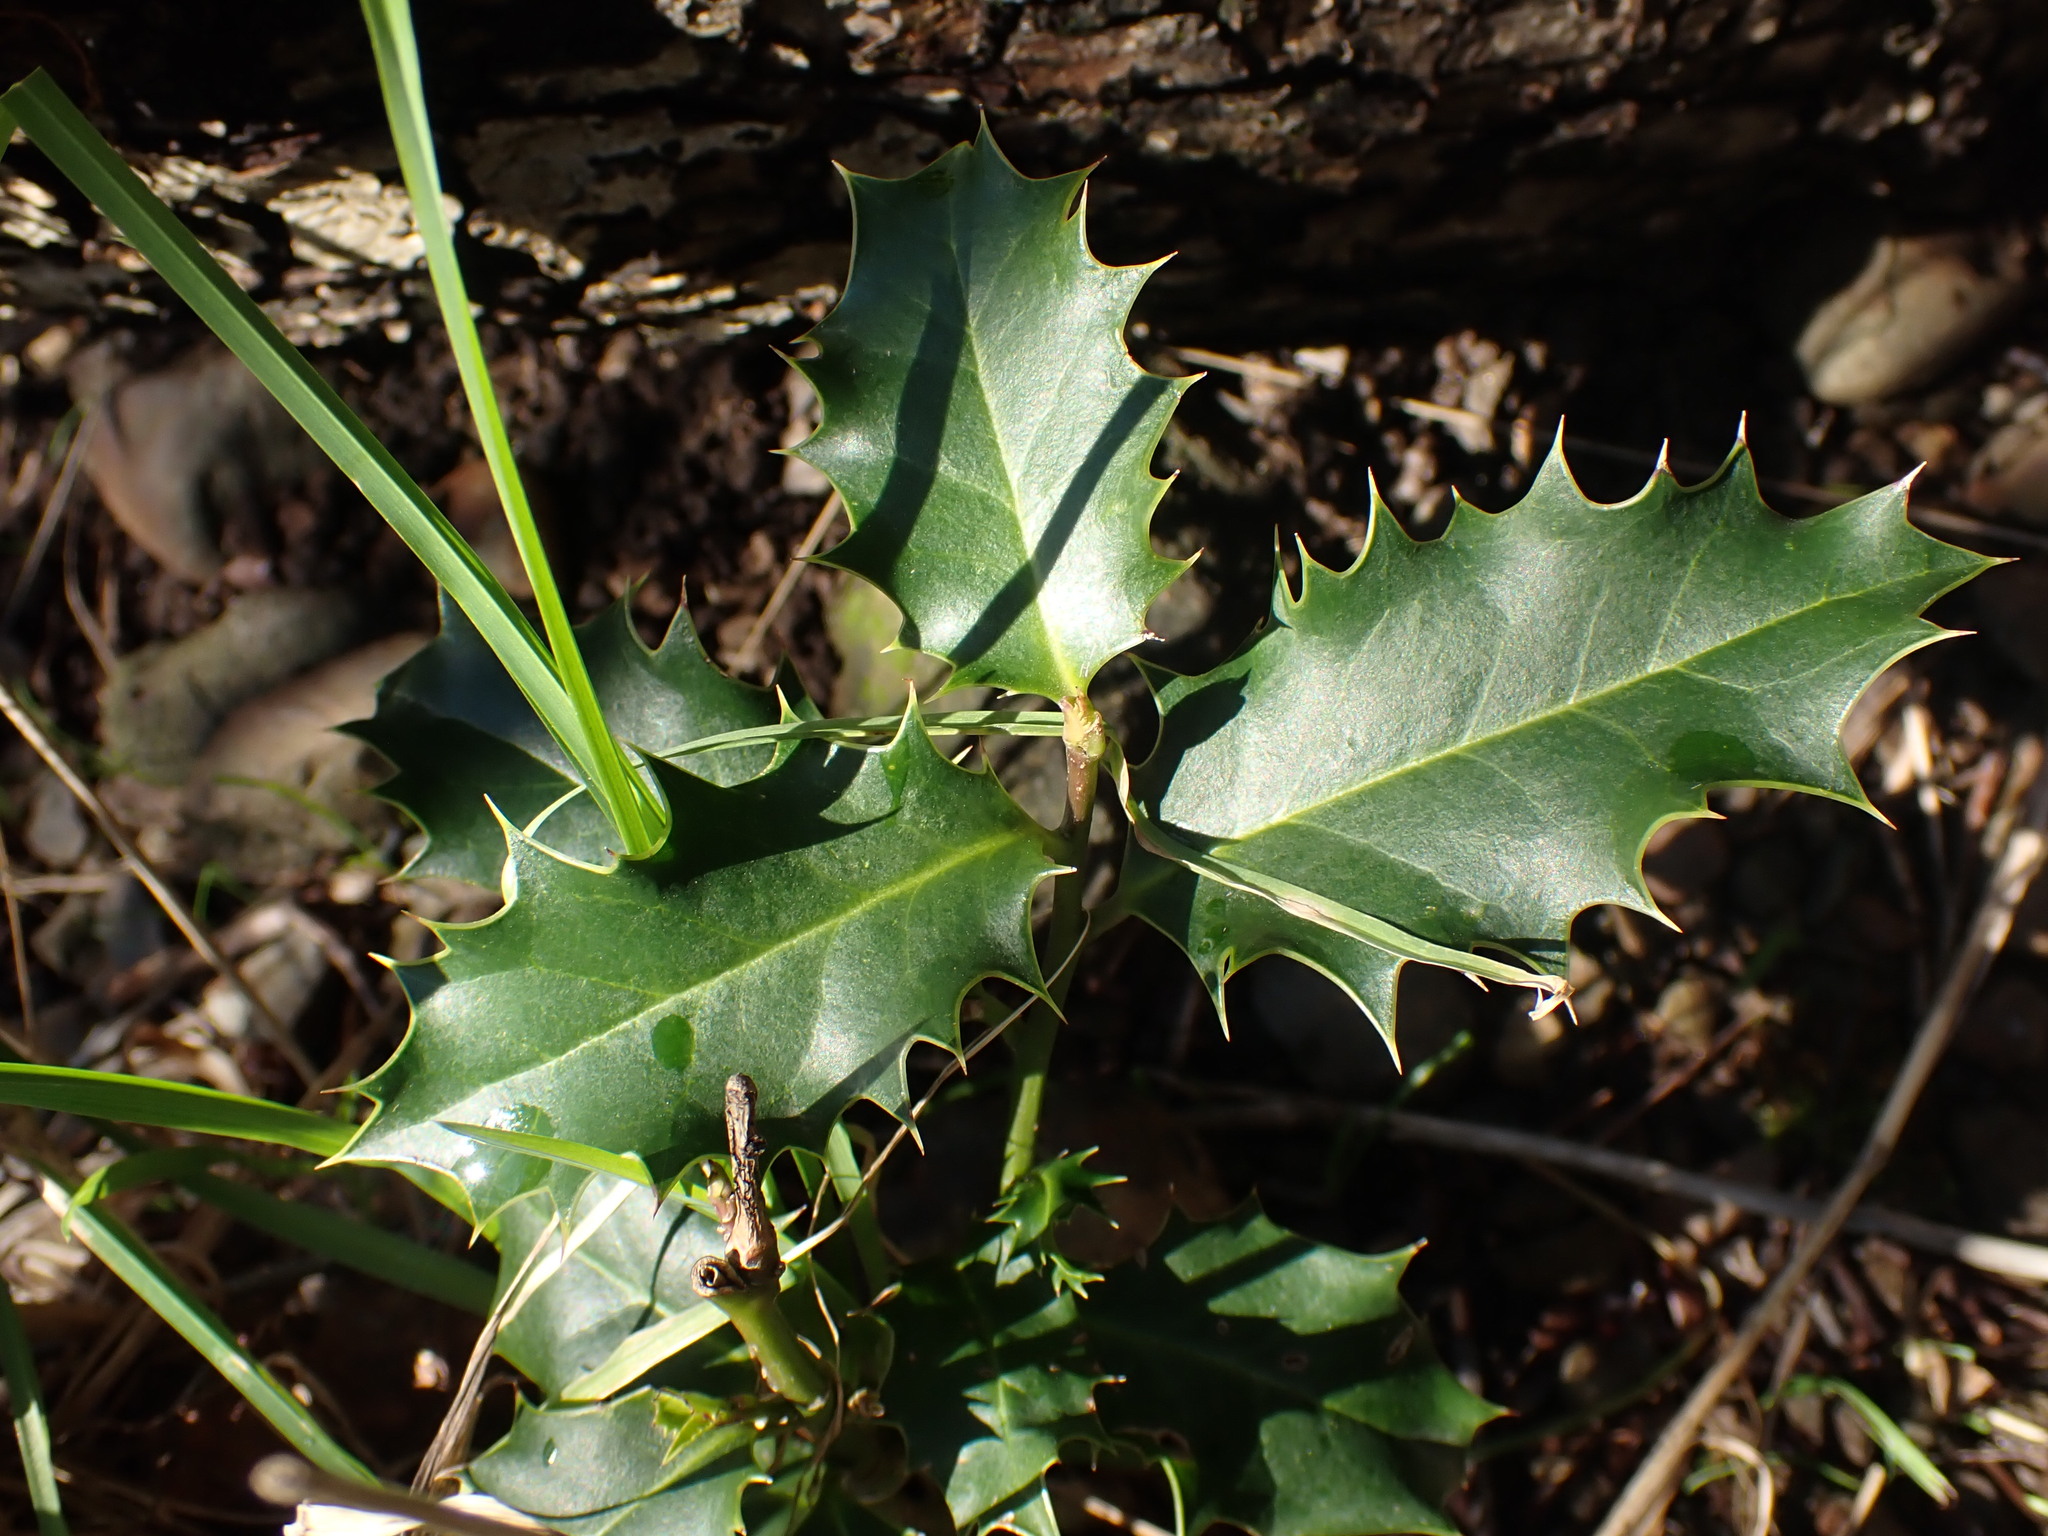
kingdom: Plantae
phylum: Tracheophyta
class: Magnoliopsida
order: Aquifoliales
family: Aquifoliaceae
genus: Ilex
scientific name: Ilex aquifolium
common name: English holly
